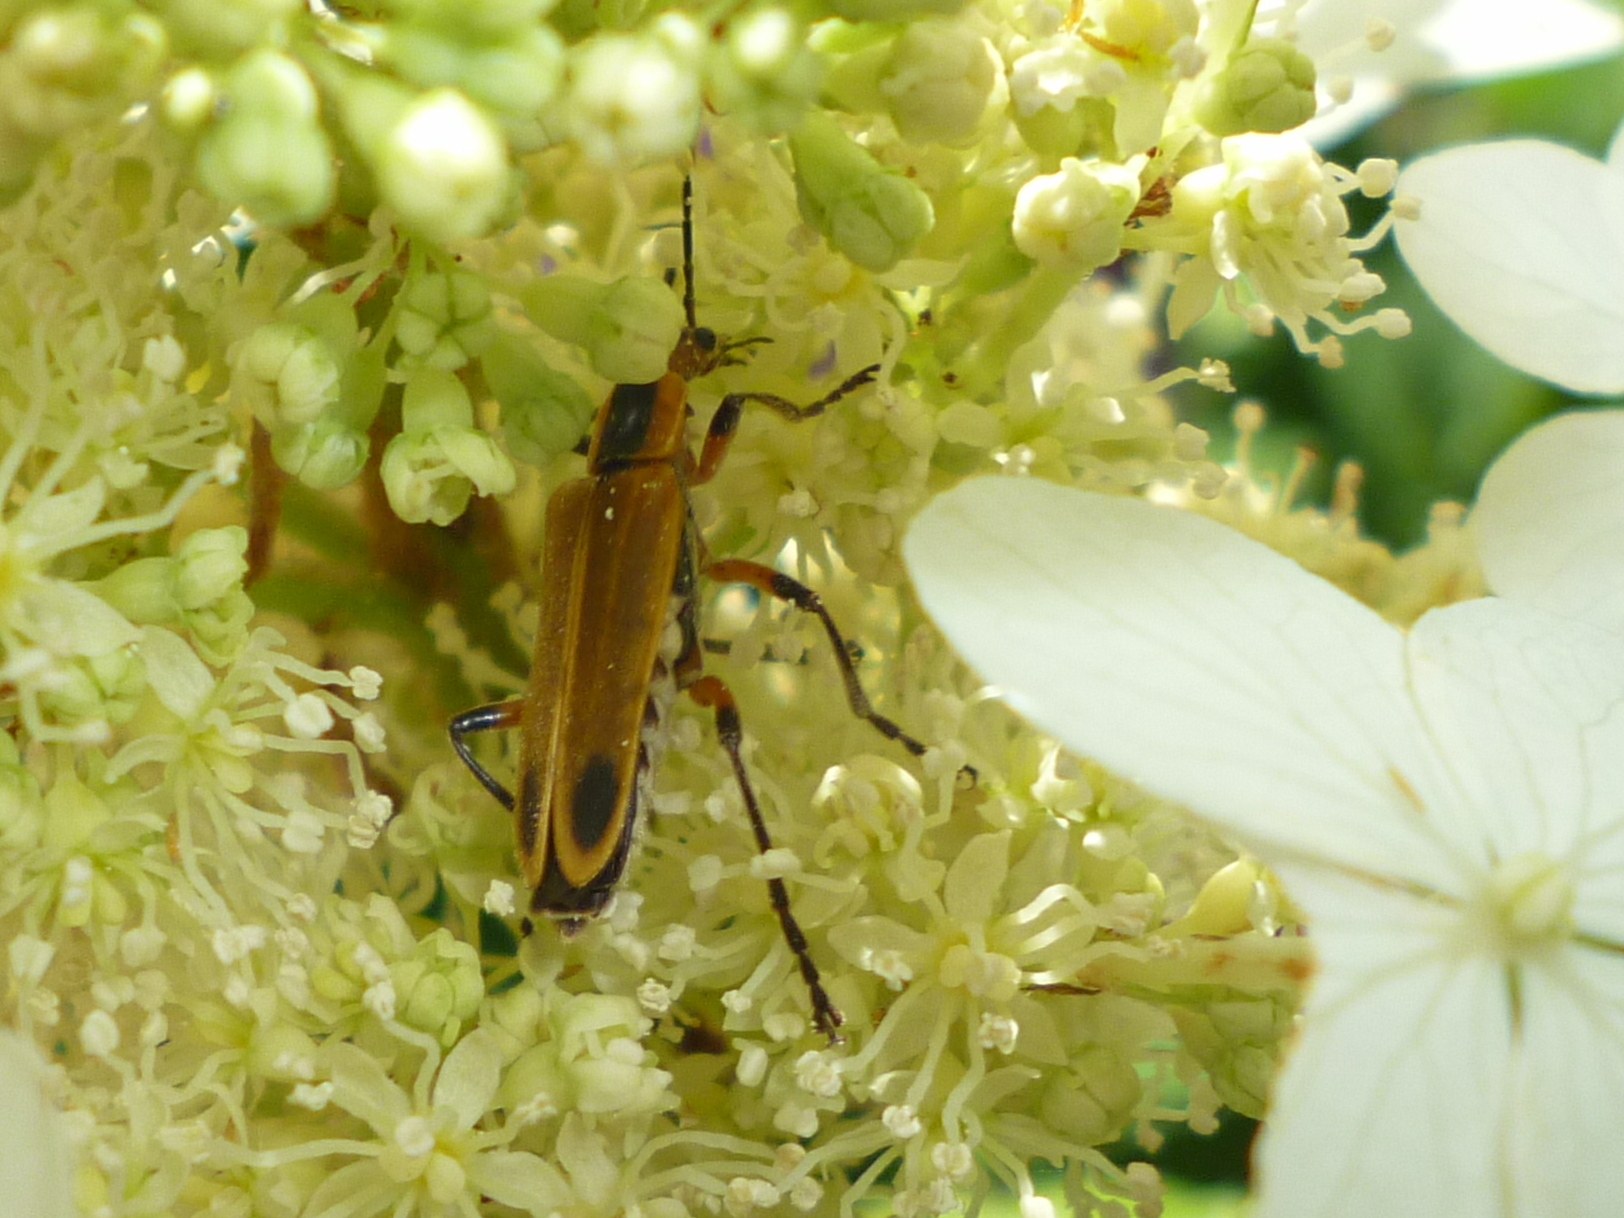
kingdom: Animalia
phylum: Arthropoda
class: Insecta
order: Coleoptera
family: Cantharidae
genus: Chauliognathus
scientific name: Chauliognathus marginatus
